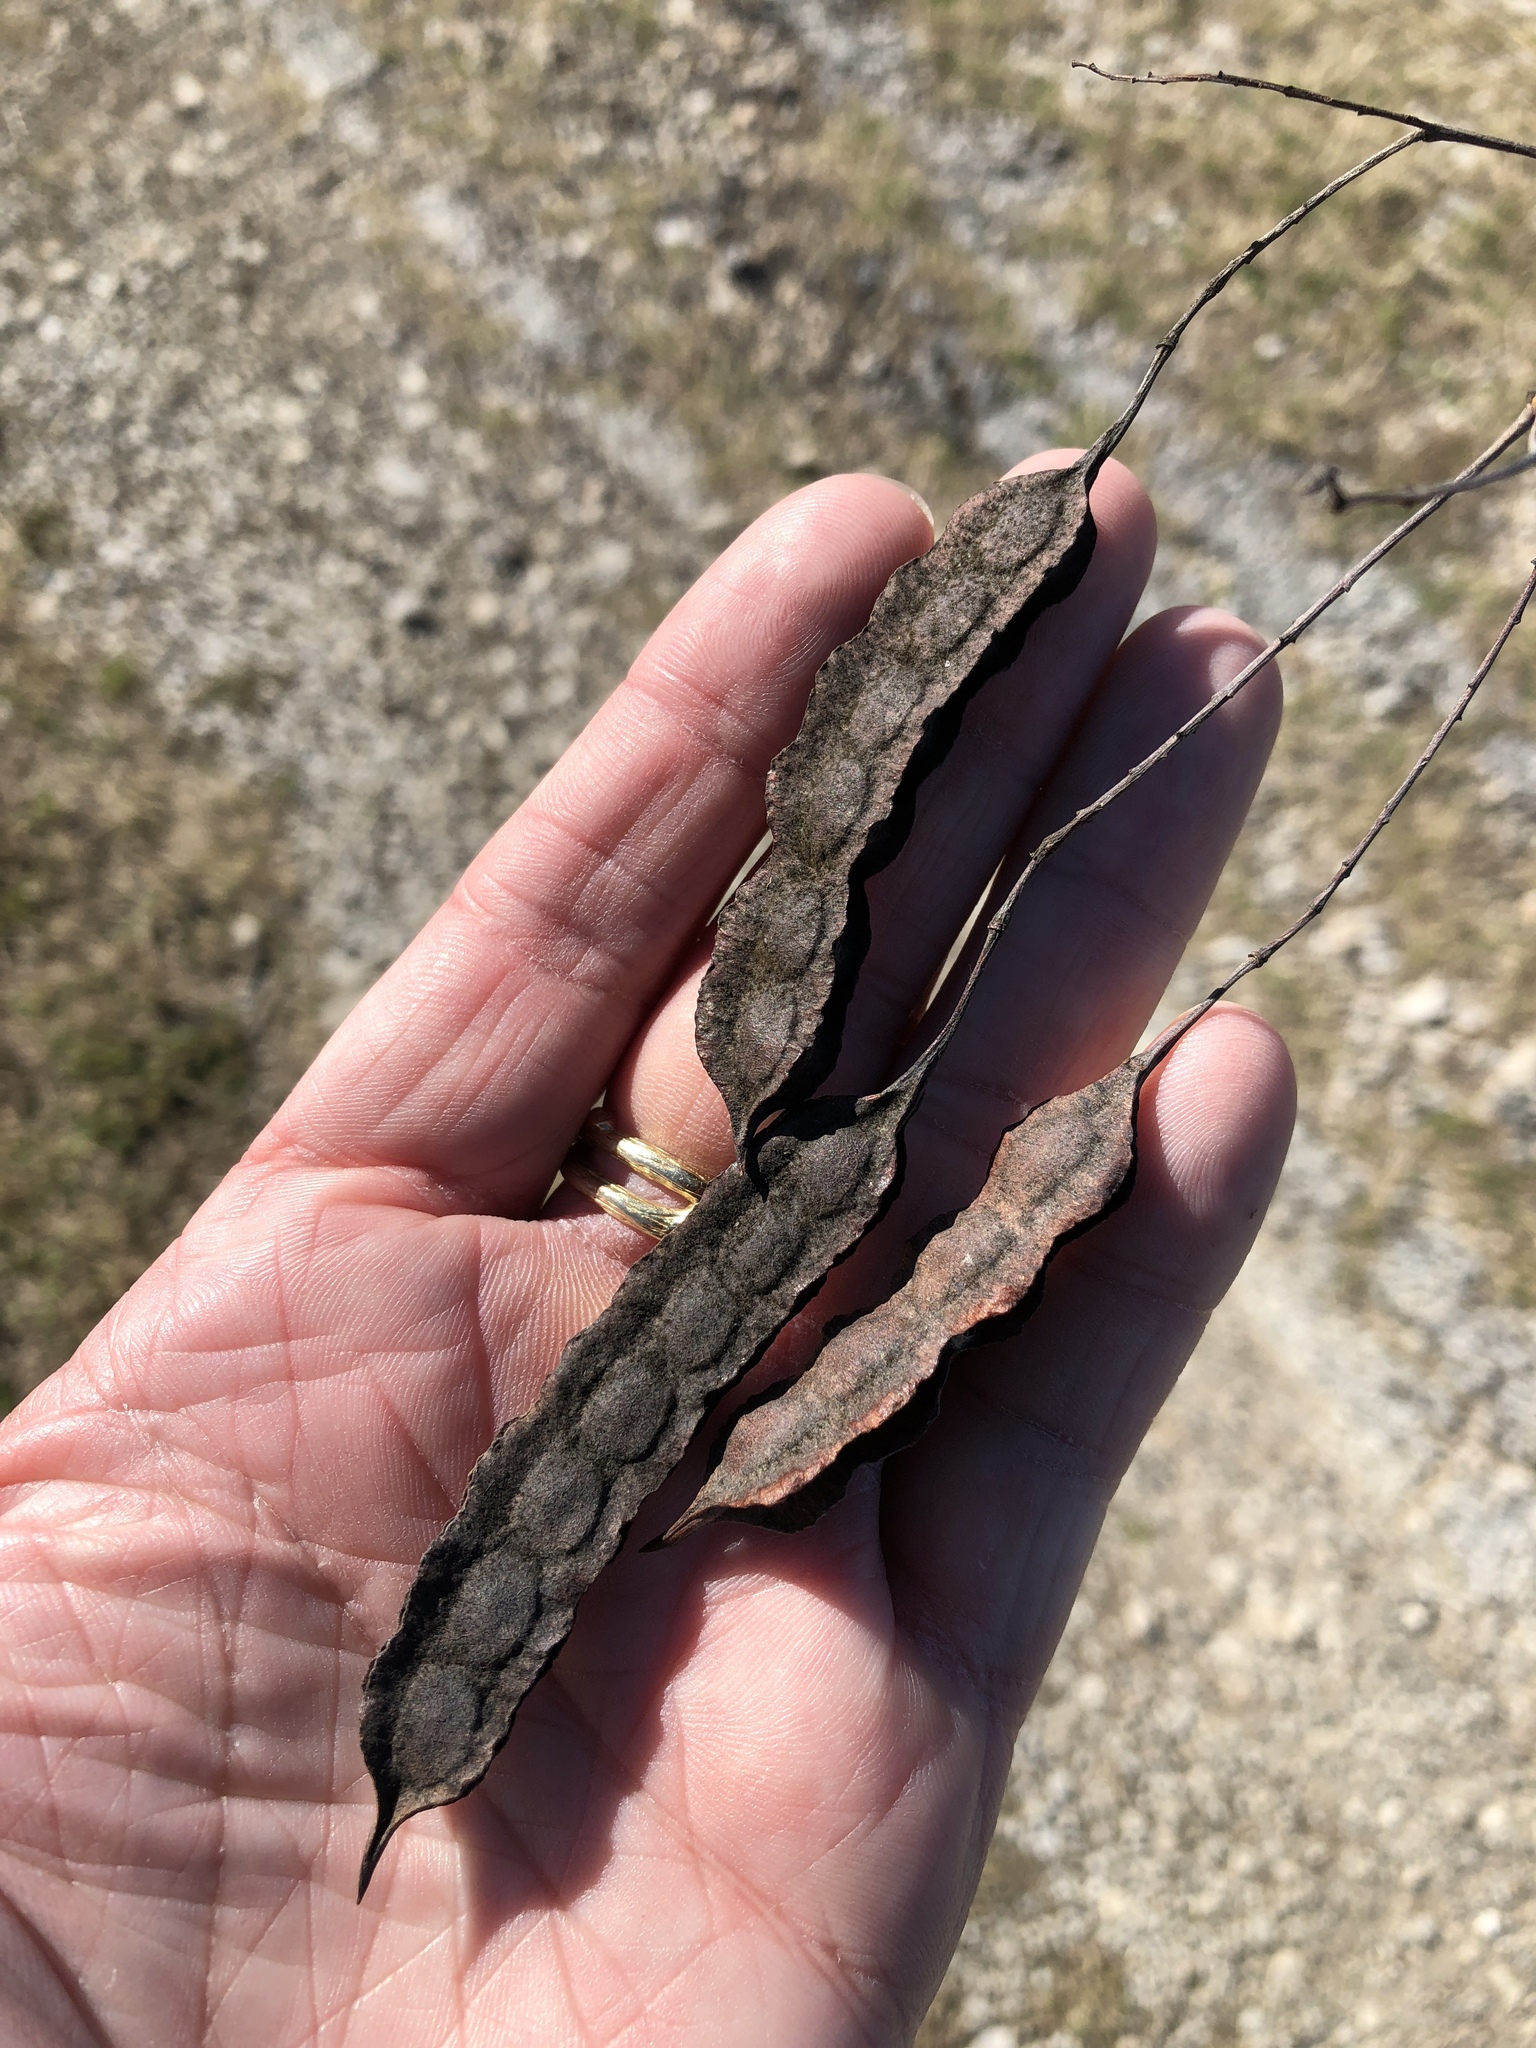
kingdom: Plantae
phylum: Tracheophyta
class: Magnoliopsida
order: Fabales
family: Fabaceae
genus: Sesbania
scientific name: Sesbania drummondii
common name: Poison-bean
